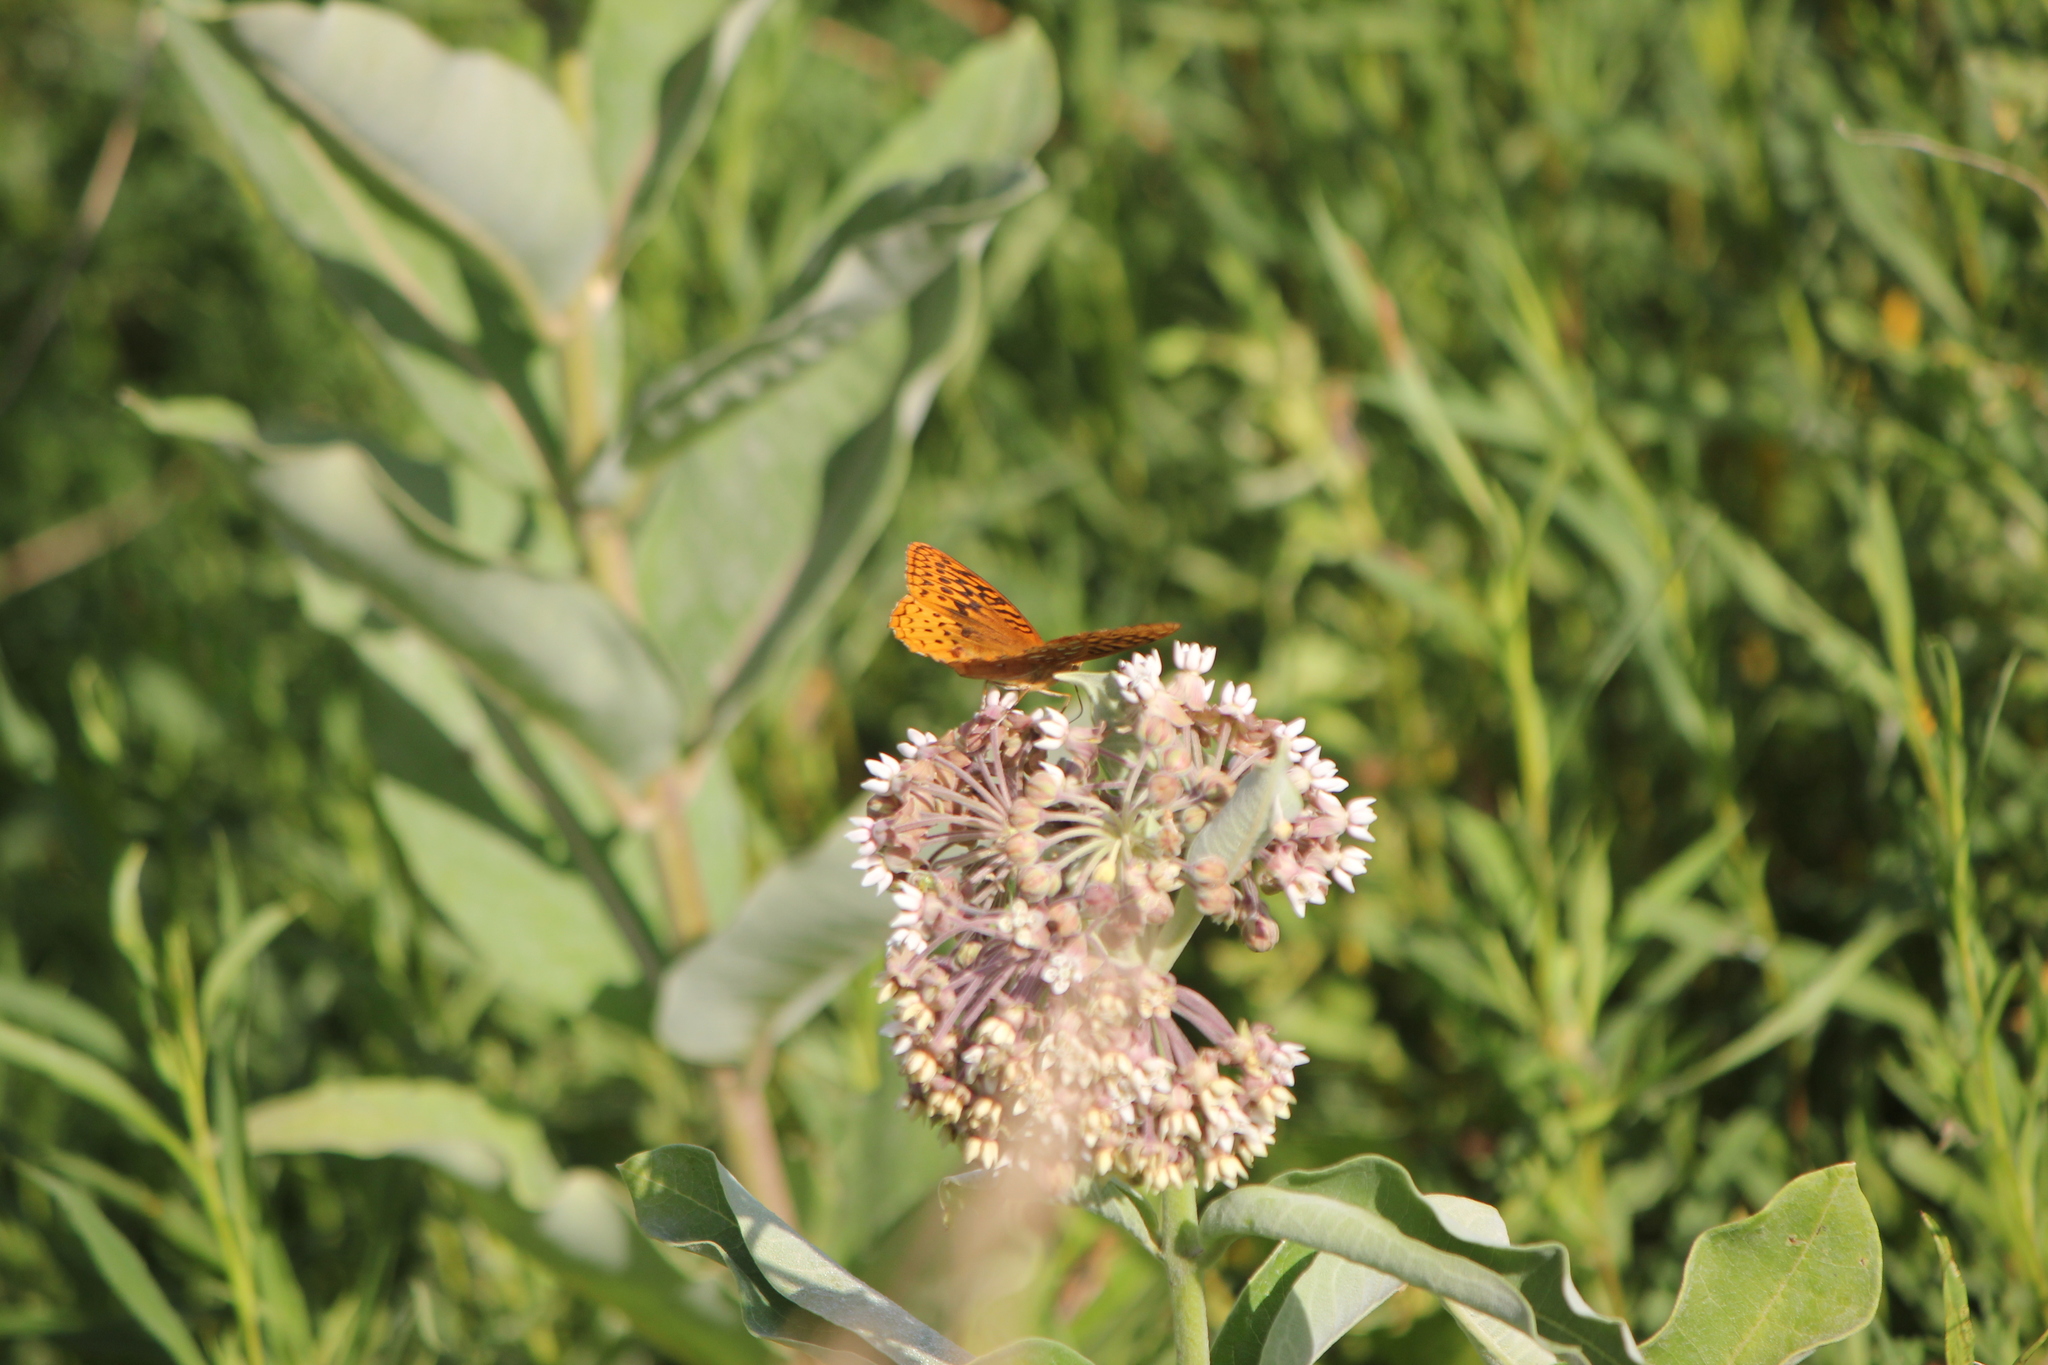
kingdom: Animalia
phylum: Arthropoda
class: Insecta
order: Lepidoptera
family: Nymphalidae
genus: Speyeria
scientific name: Speyeria cybele
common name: Great spangled fritillary
